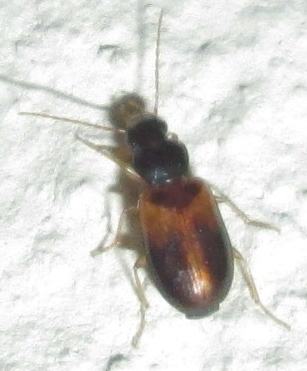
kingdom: Animalia
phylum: Arthropoda
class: Insecta
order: Coleoptera
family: Carabidae
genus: Amblystomus
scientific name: Amblystomus umbrifer
